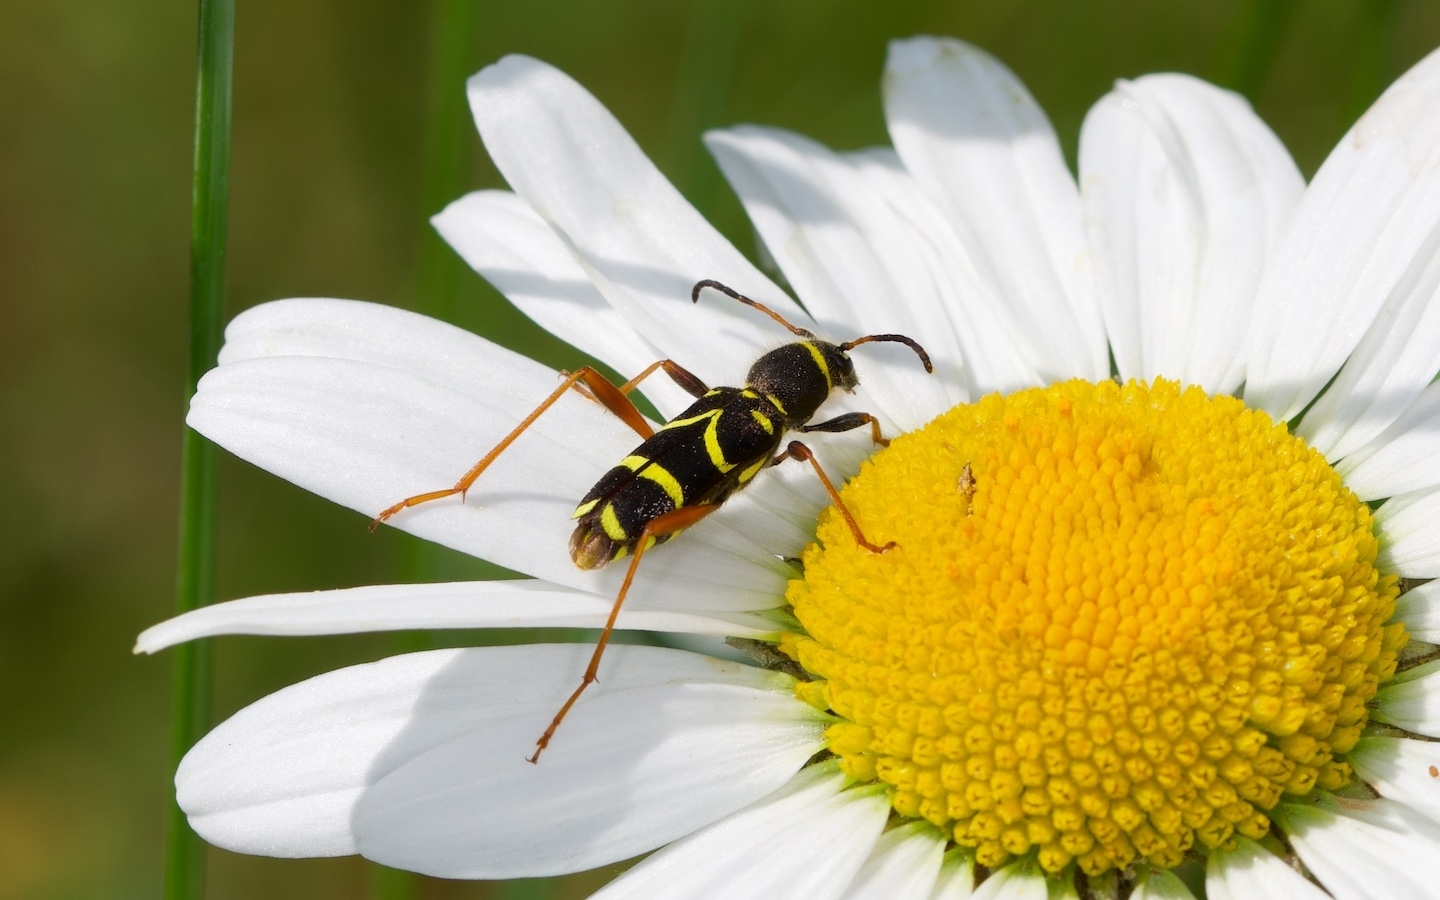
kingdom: Animalia
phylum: Arthropoda
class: Insecta
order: Coleoptera
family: Cerambycidae
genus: Clytus
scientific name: Clytus arietis
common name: Wasp beetle
